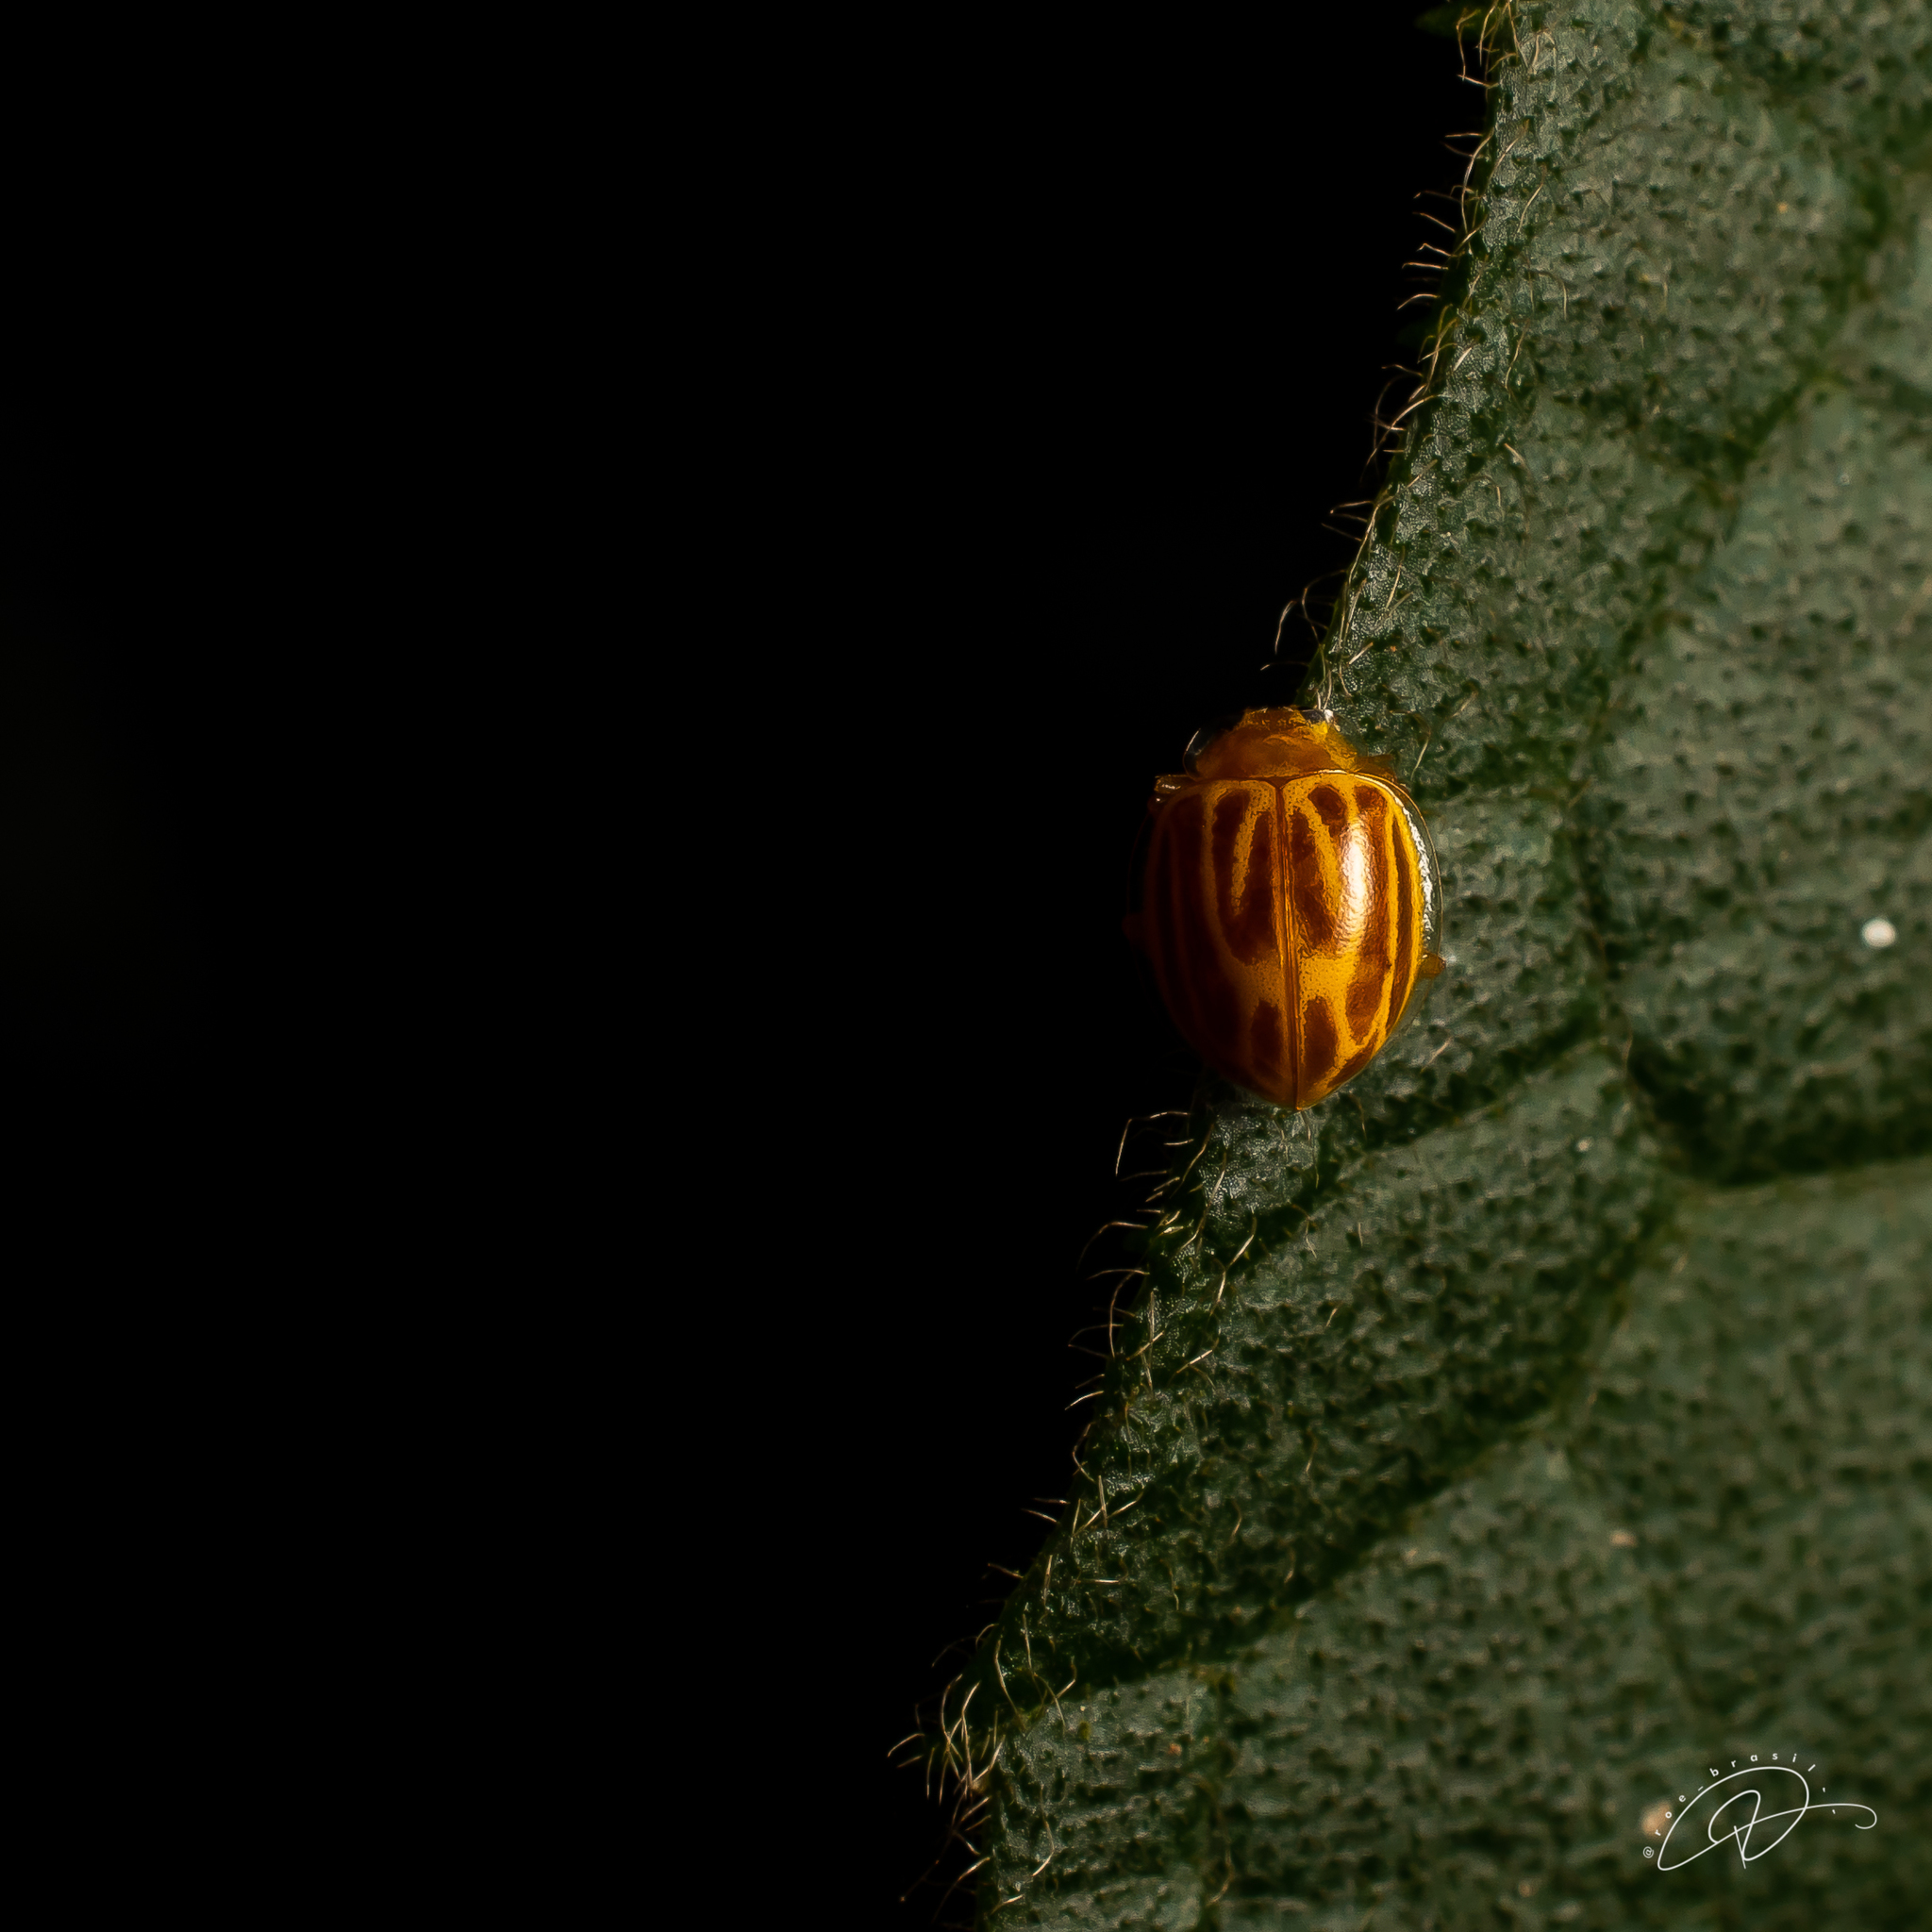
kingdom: Animalia
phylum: Arthropoda
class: Insecta
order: Coleoptera
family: Coccinellidae
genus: Psyllobora
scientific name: Psyllobora
